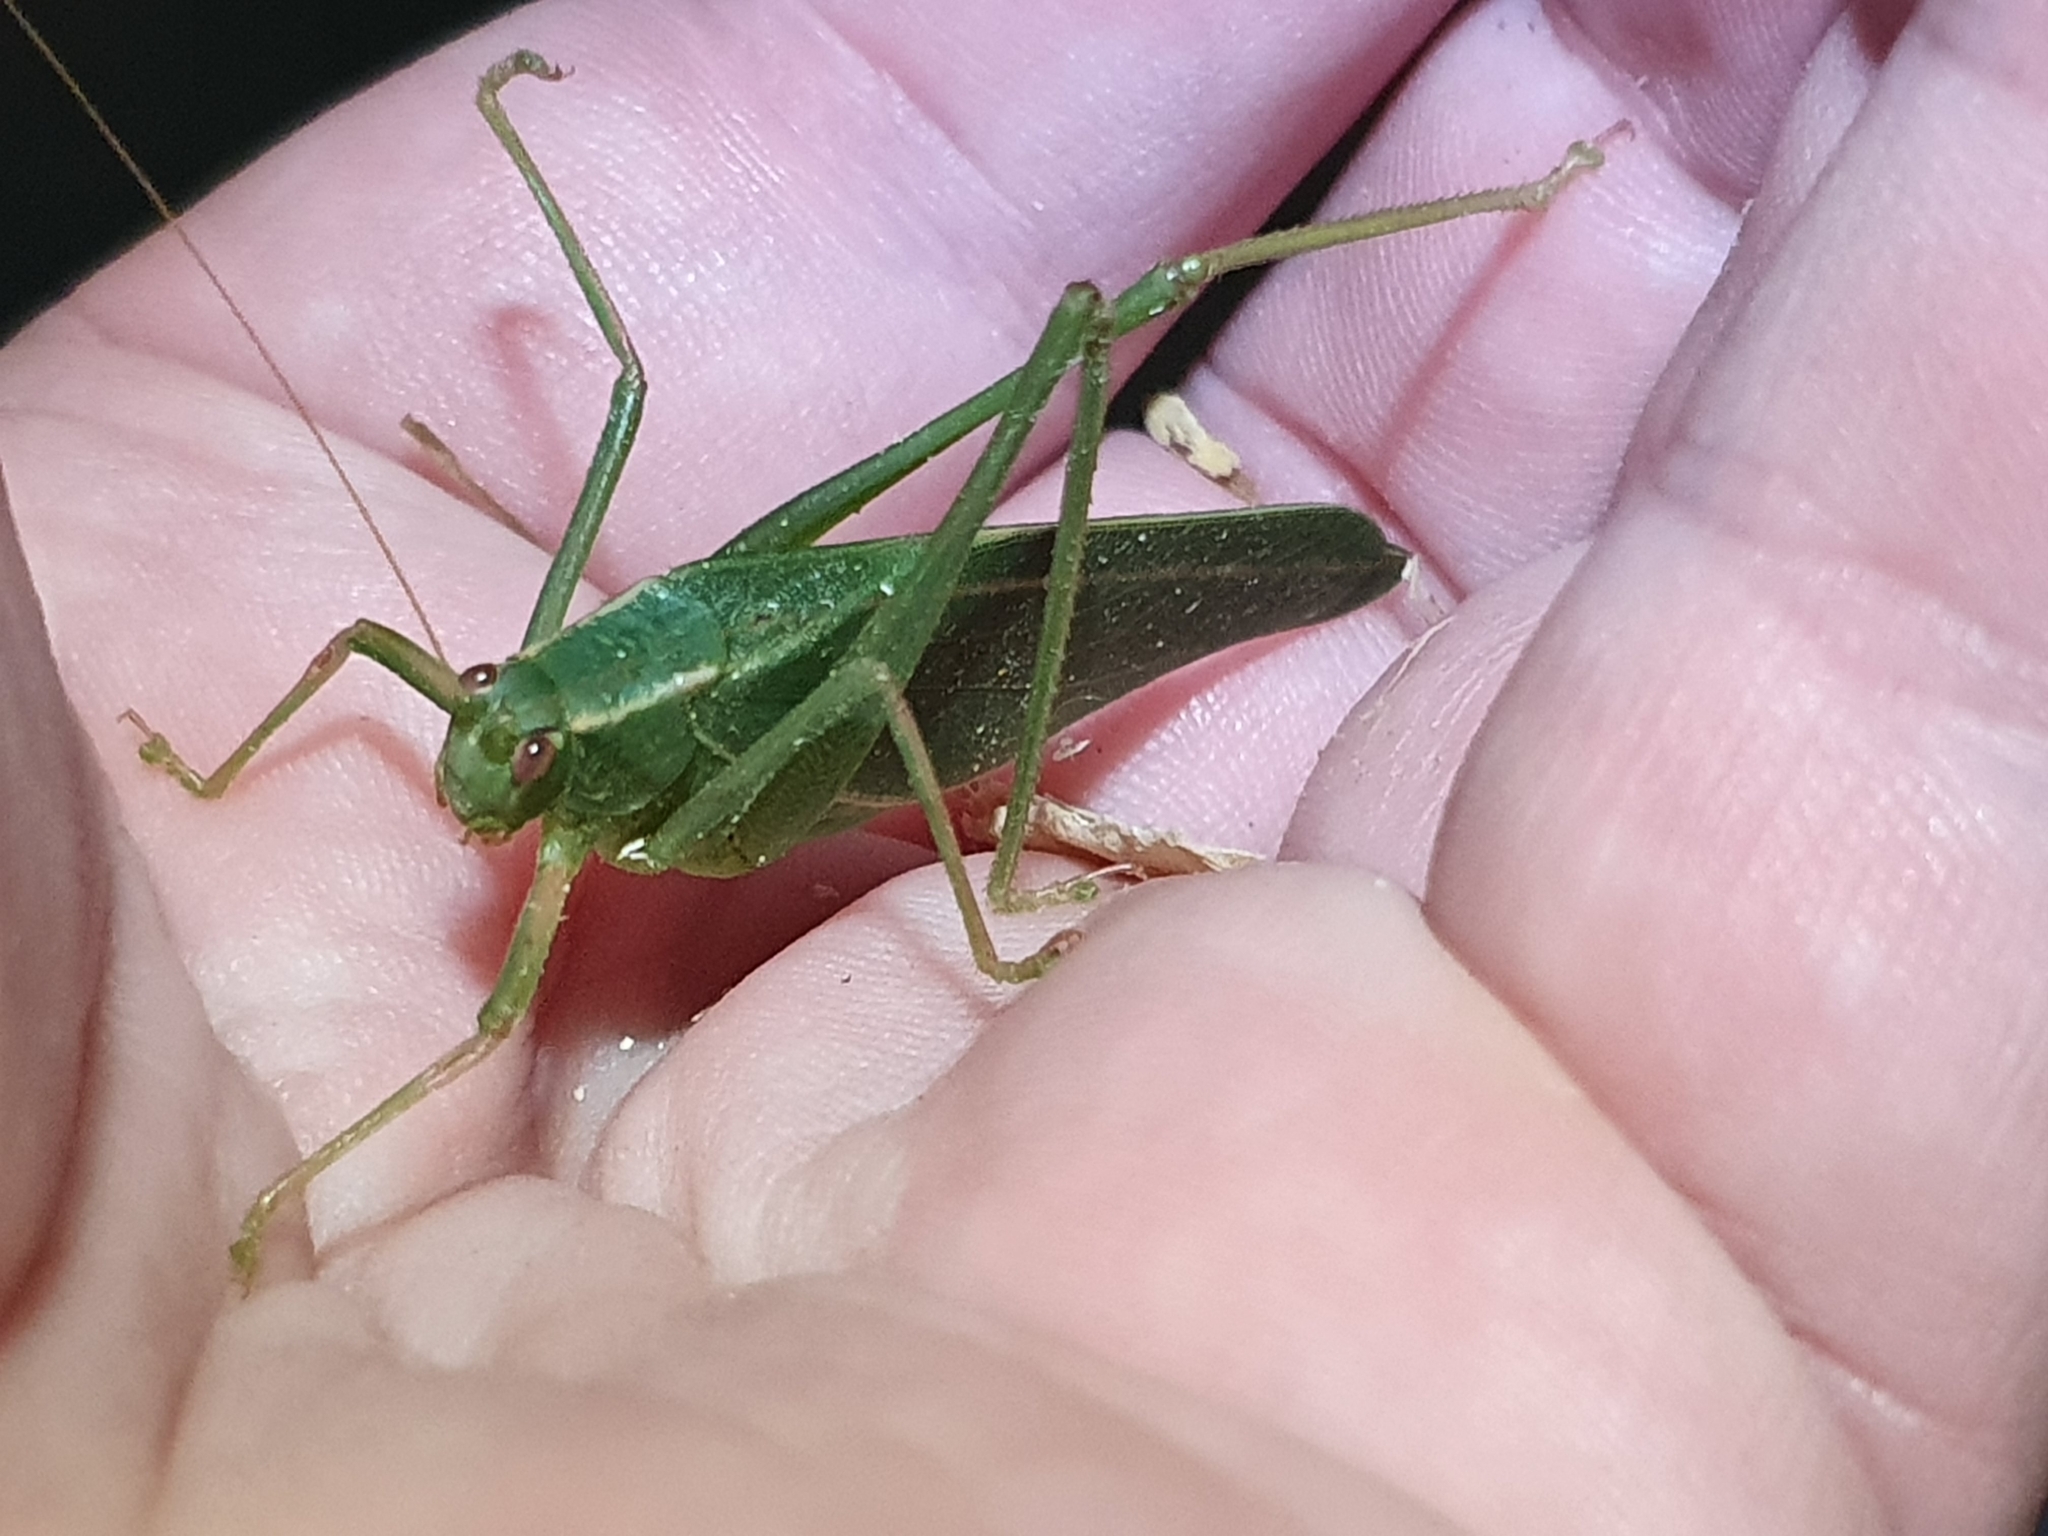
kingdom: Animalia
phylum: Arthropoda
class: Insecta
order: Orthoptera
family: Tettigoniidae
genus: Caedicia
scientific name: Caedicia simplex
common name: Common garden katydid
